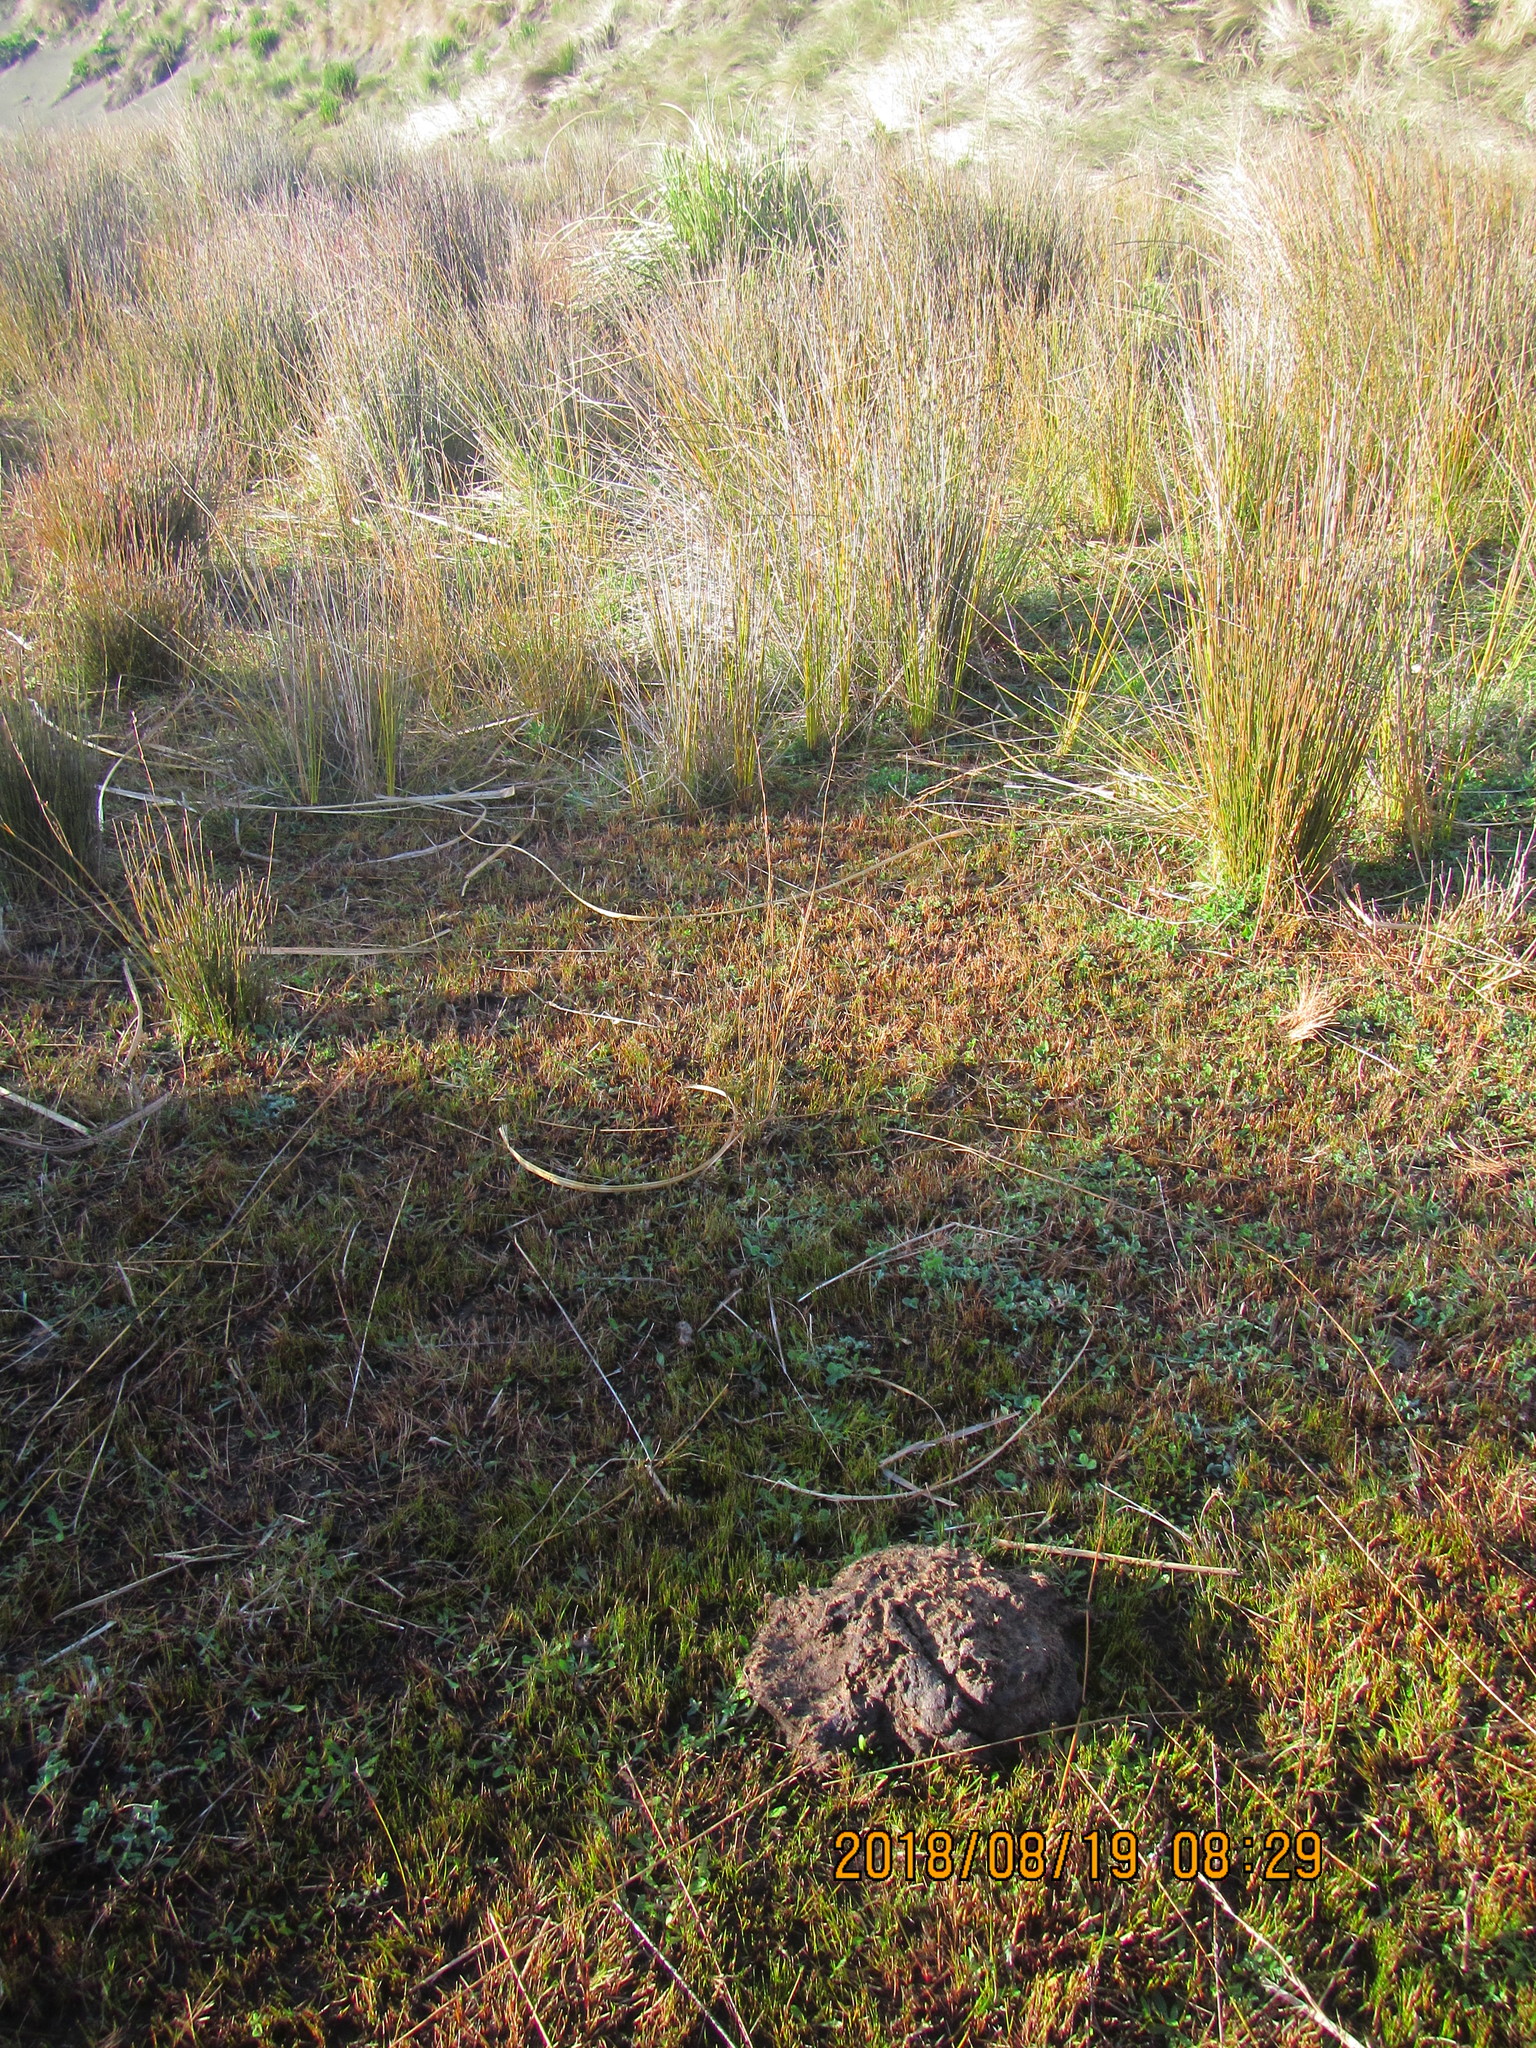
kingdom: Plantae
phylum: Tracheophyta
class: Liliopsida
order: Poales
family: Restionaceae
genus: Apodasmia
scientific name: Apodasmia similis
